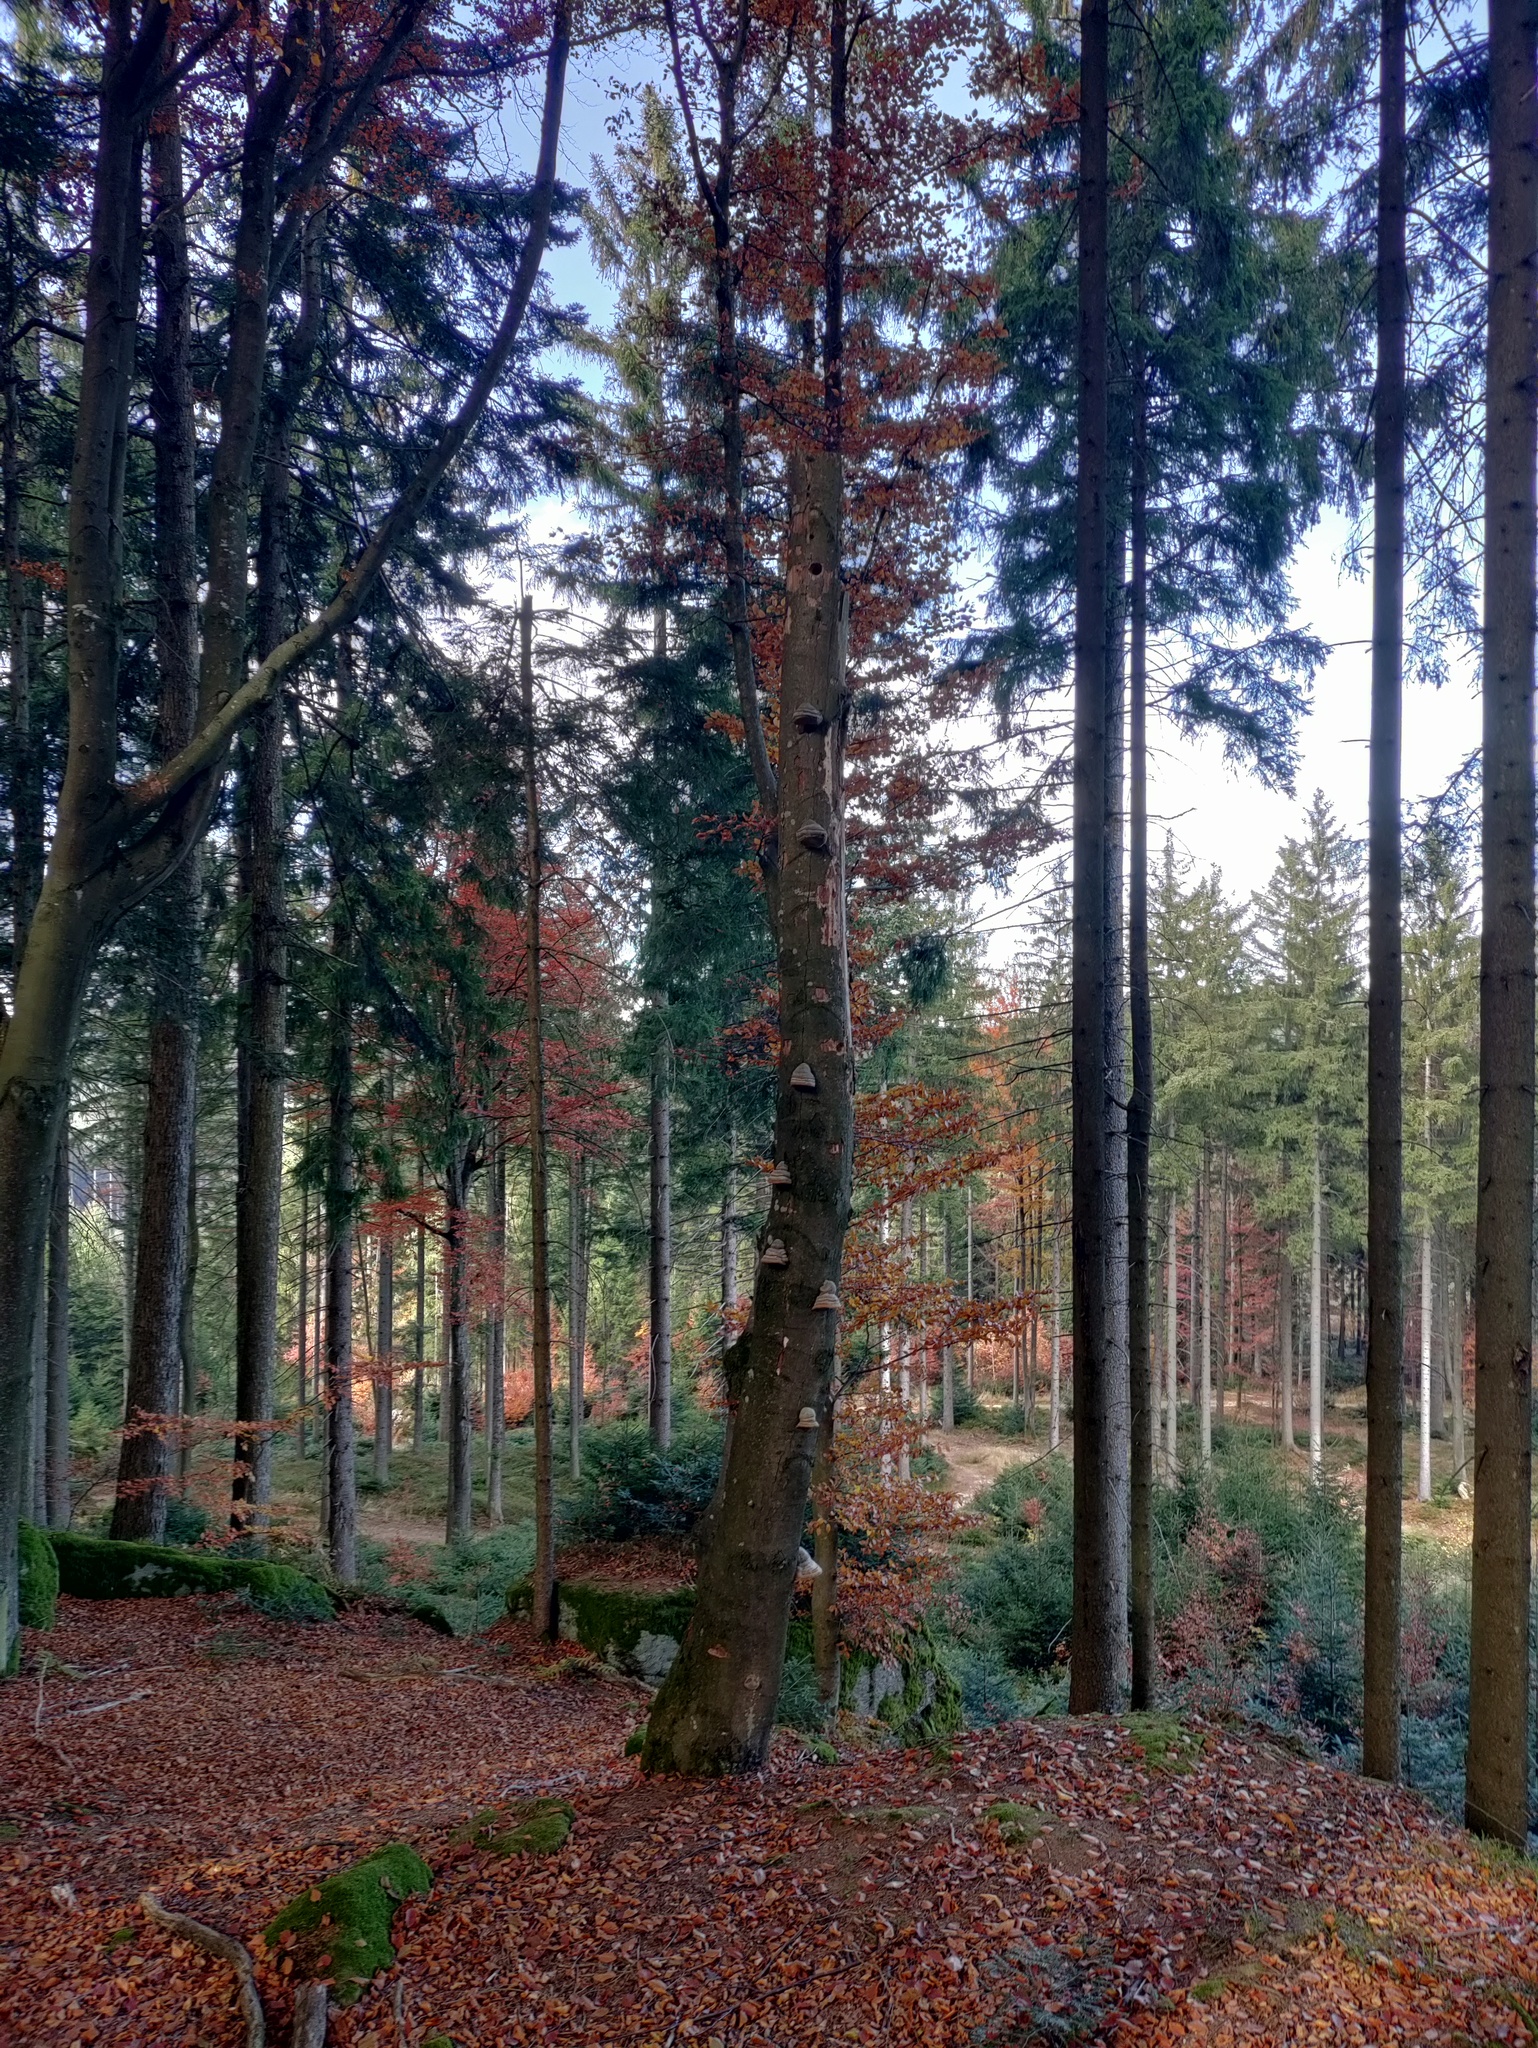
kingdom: Fungi
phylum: Basidiomycota
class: Agaricomycetes
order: Polyporales
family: Polyporaceae
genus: Fomes
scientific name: Fomes fomentarius
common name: Hoof fungus
